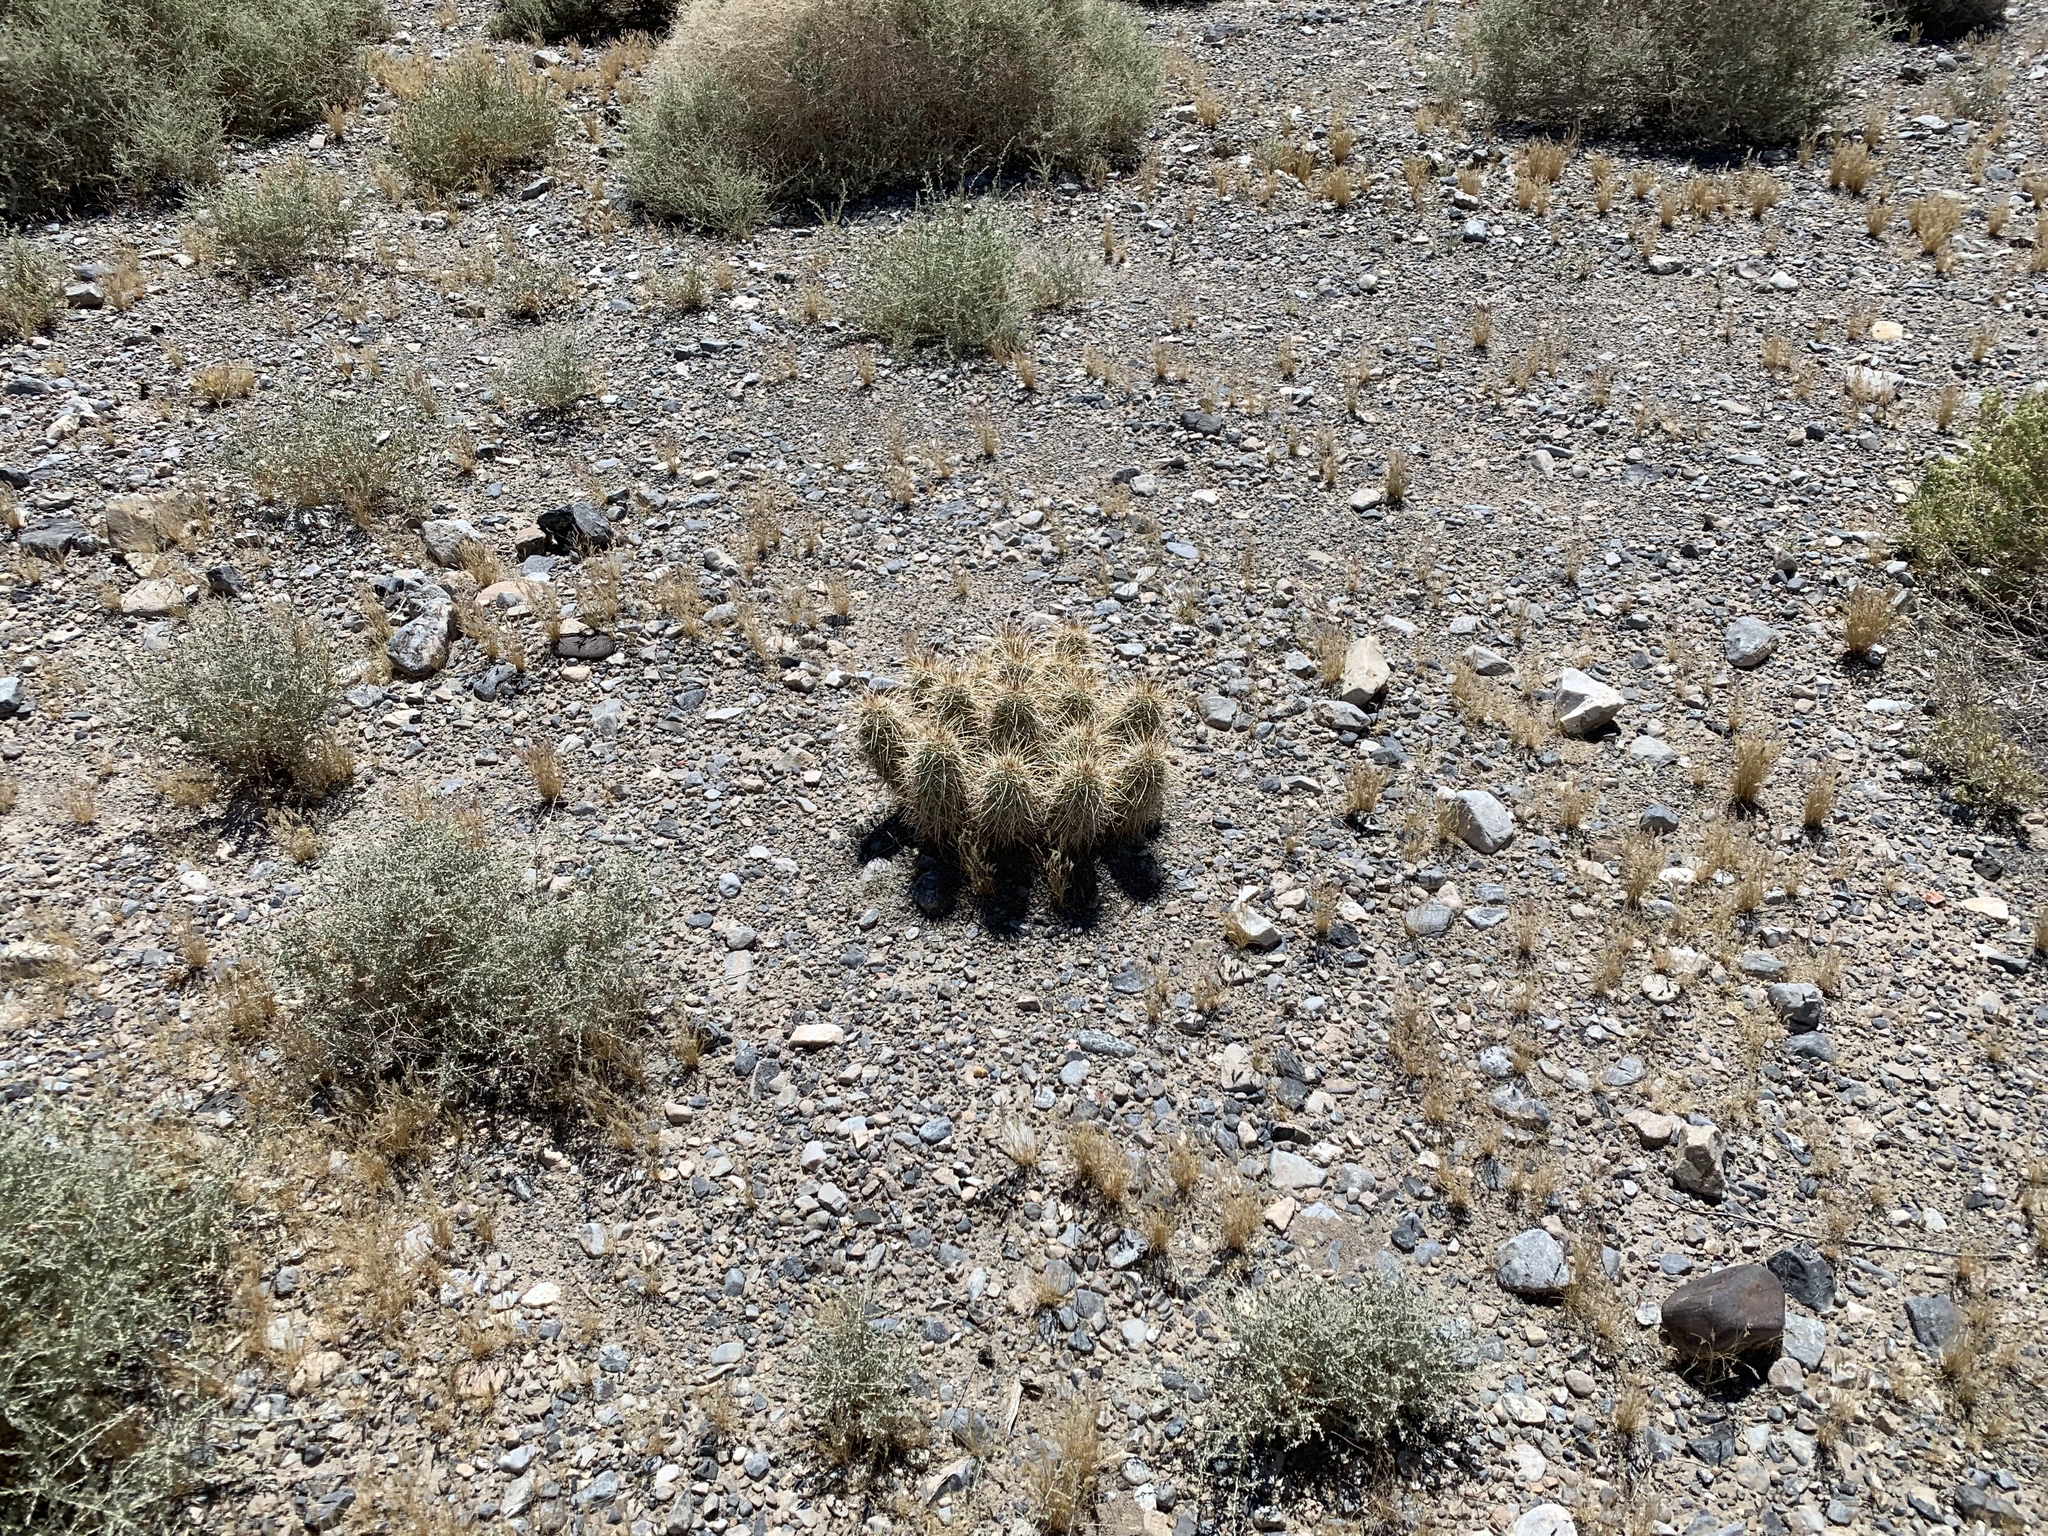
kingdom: Plantae
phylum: Tracheophyta
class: Magnoliopsida
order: Caryophyllales
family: Cactaceae
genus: Echinocereus
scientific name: Echinocereus engelmannii
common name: Engelmann's hedgehog cactus
